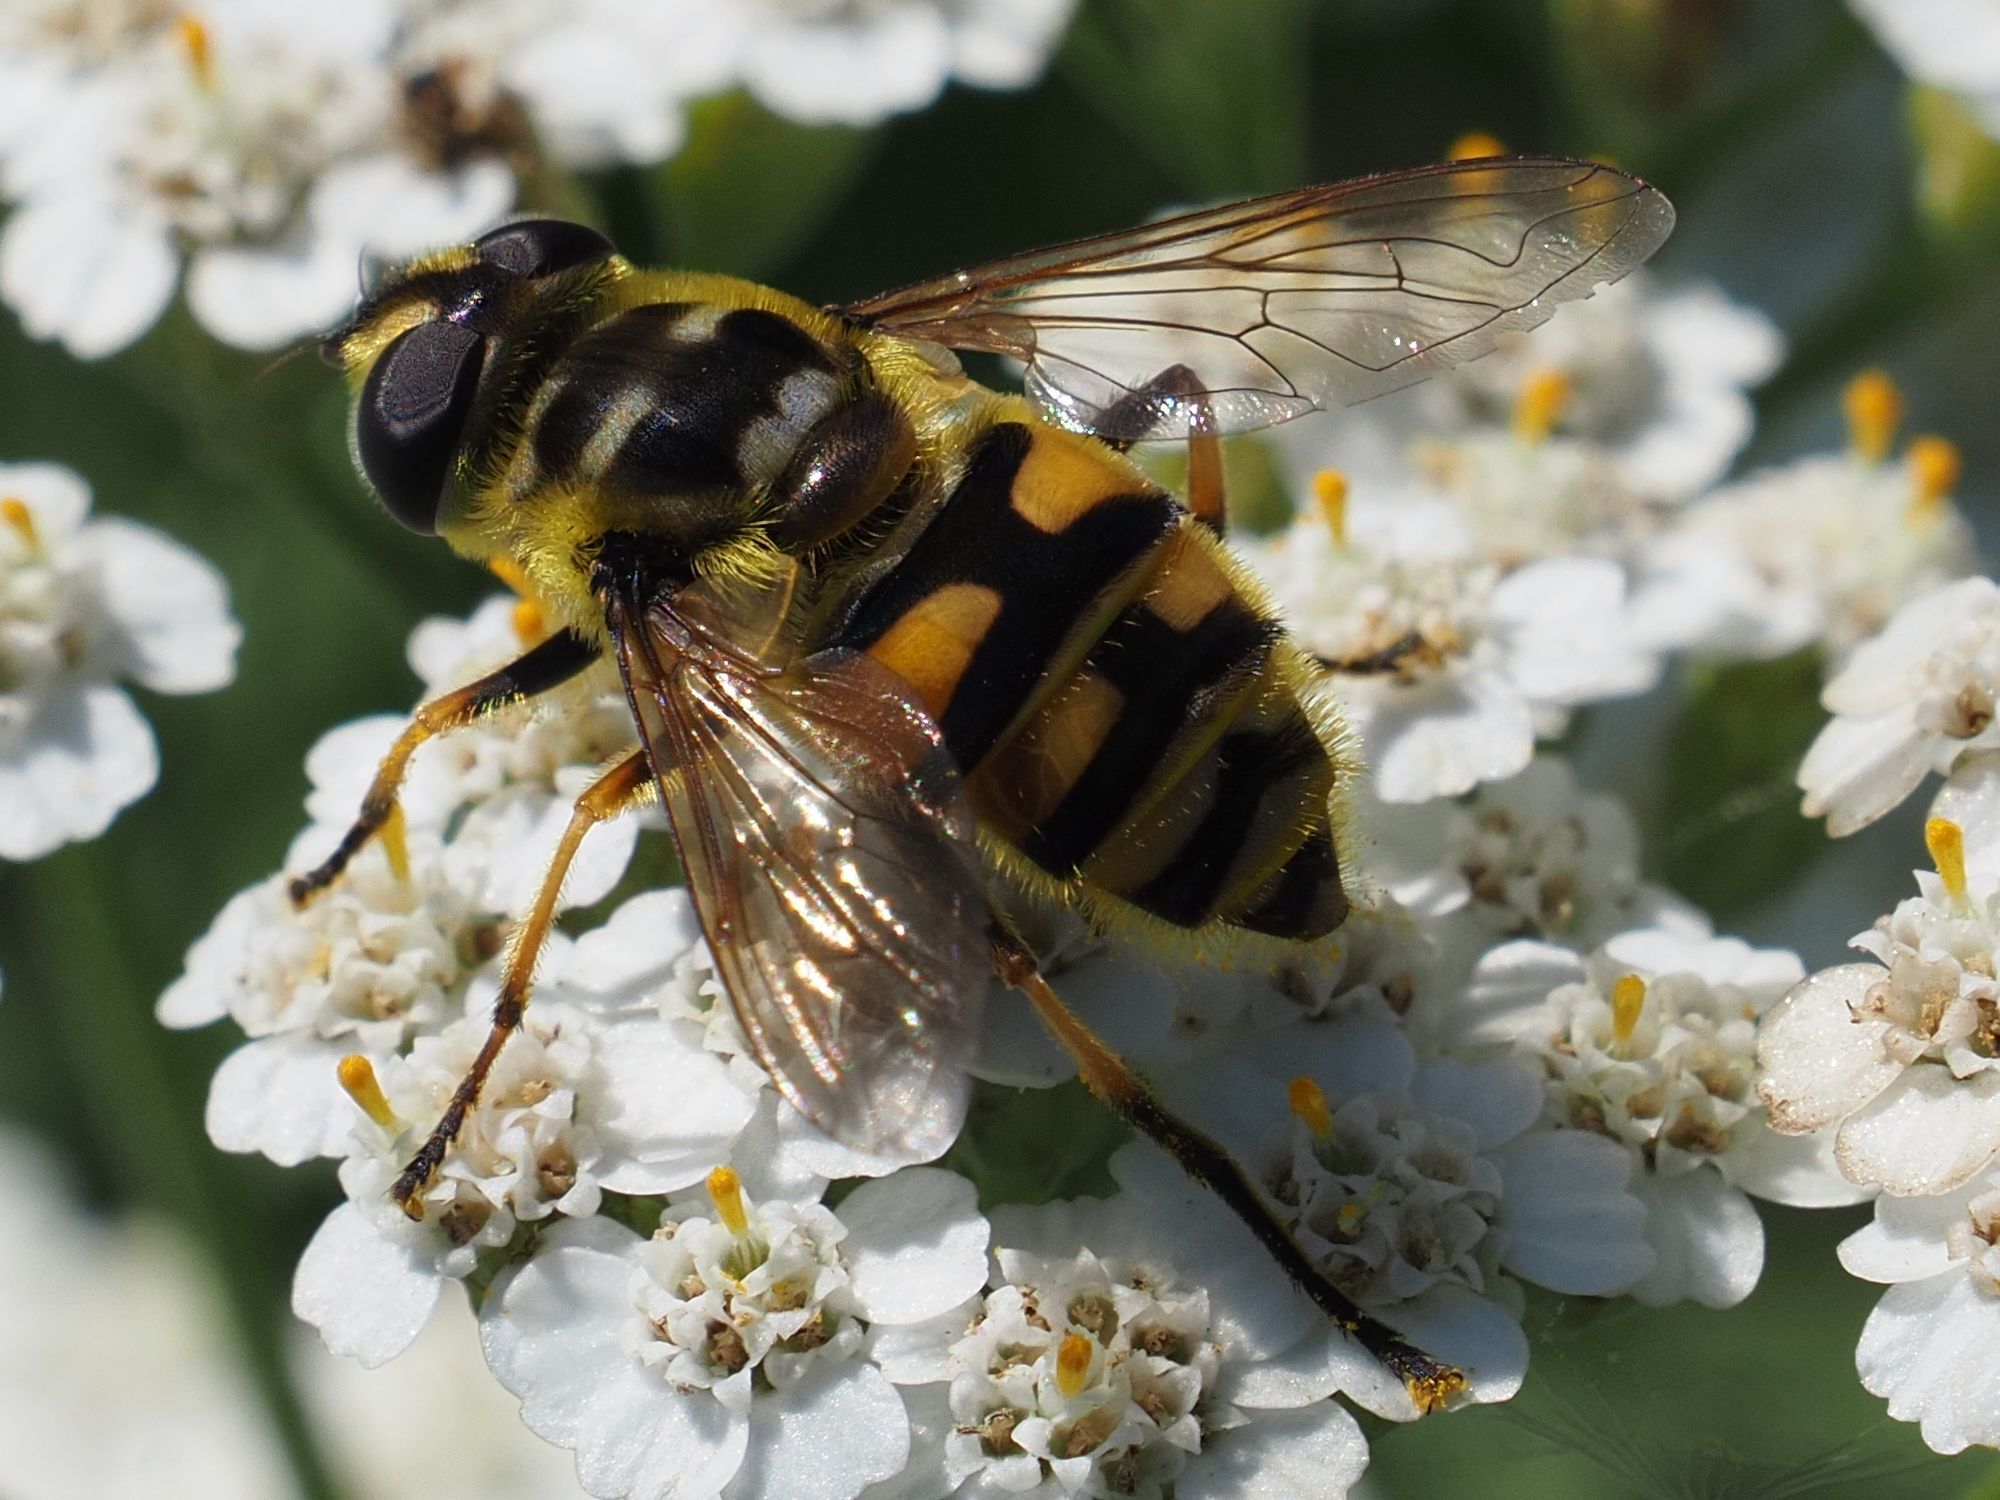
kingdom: Animalia
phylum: Arthropoda
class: Insecta
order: Diptera
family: Syrphidae
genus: Myathropa
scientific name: Myathropa florea
